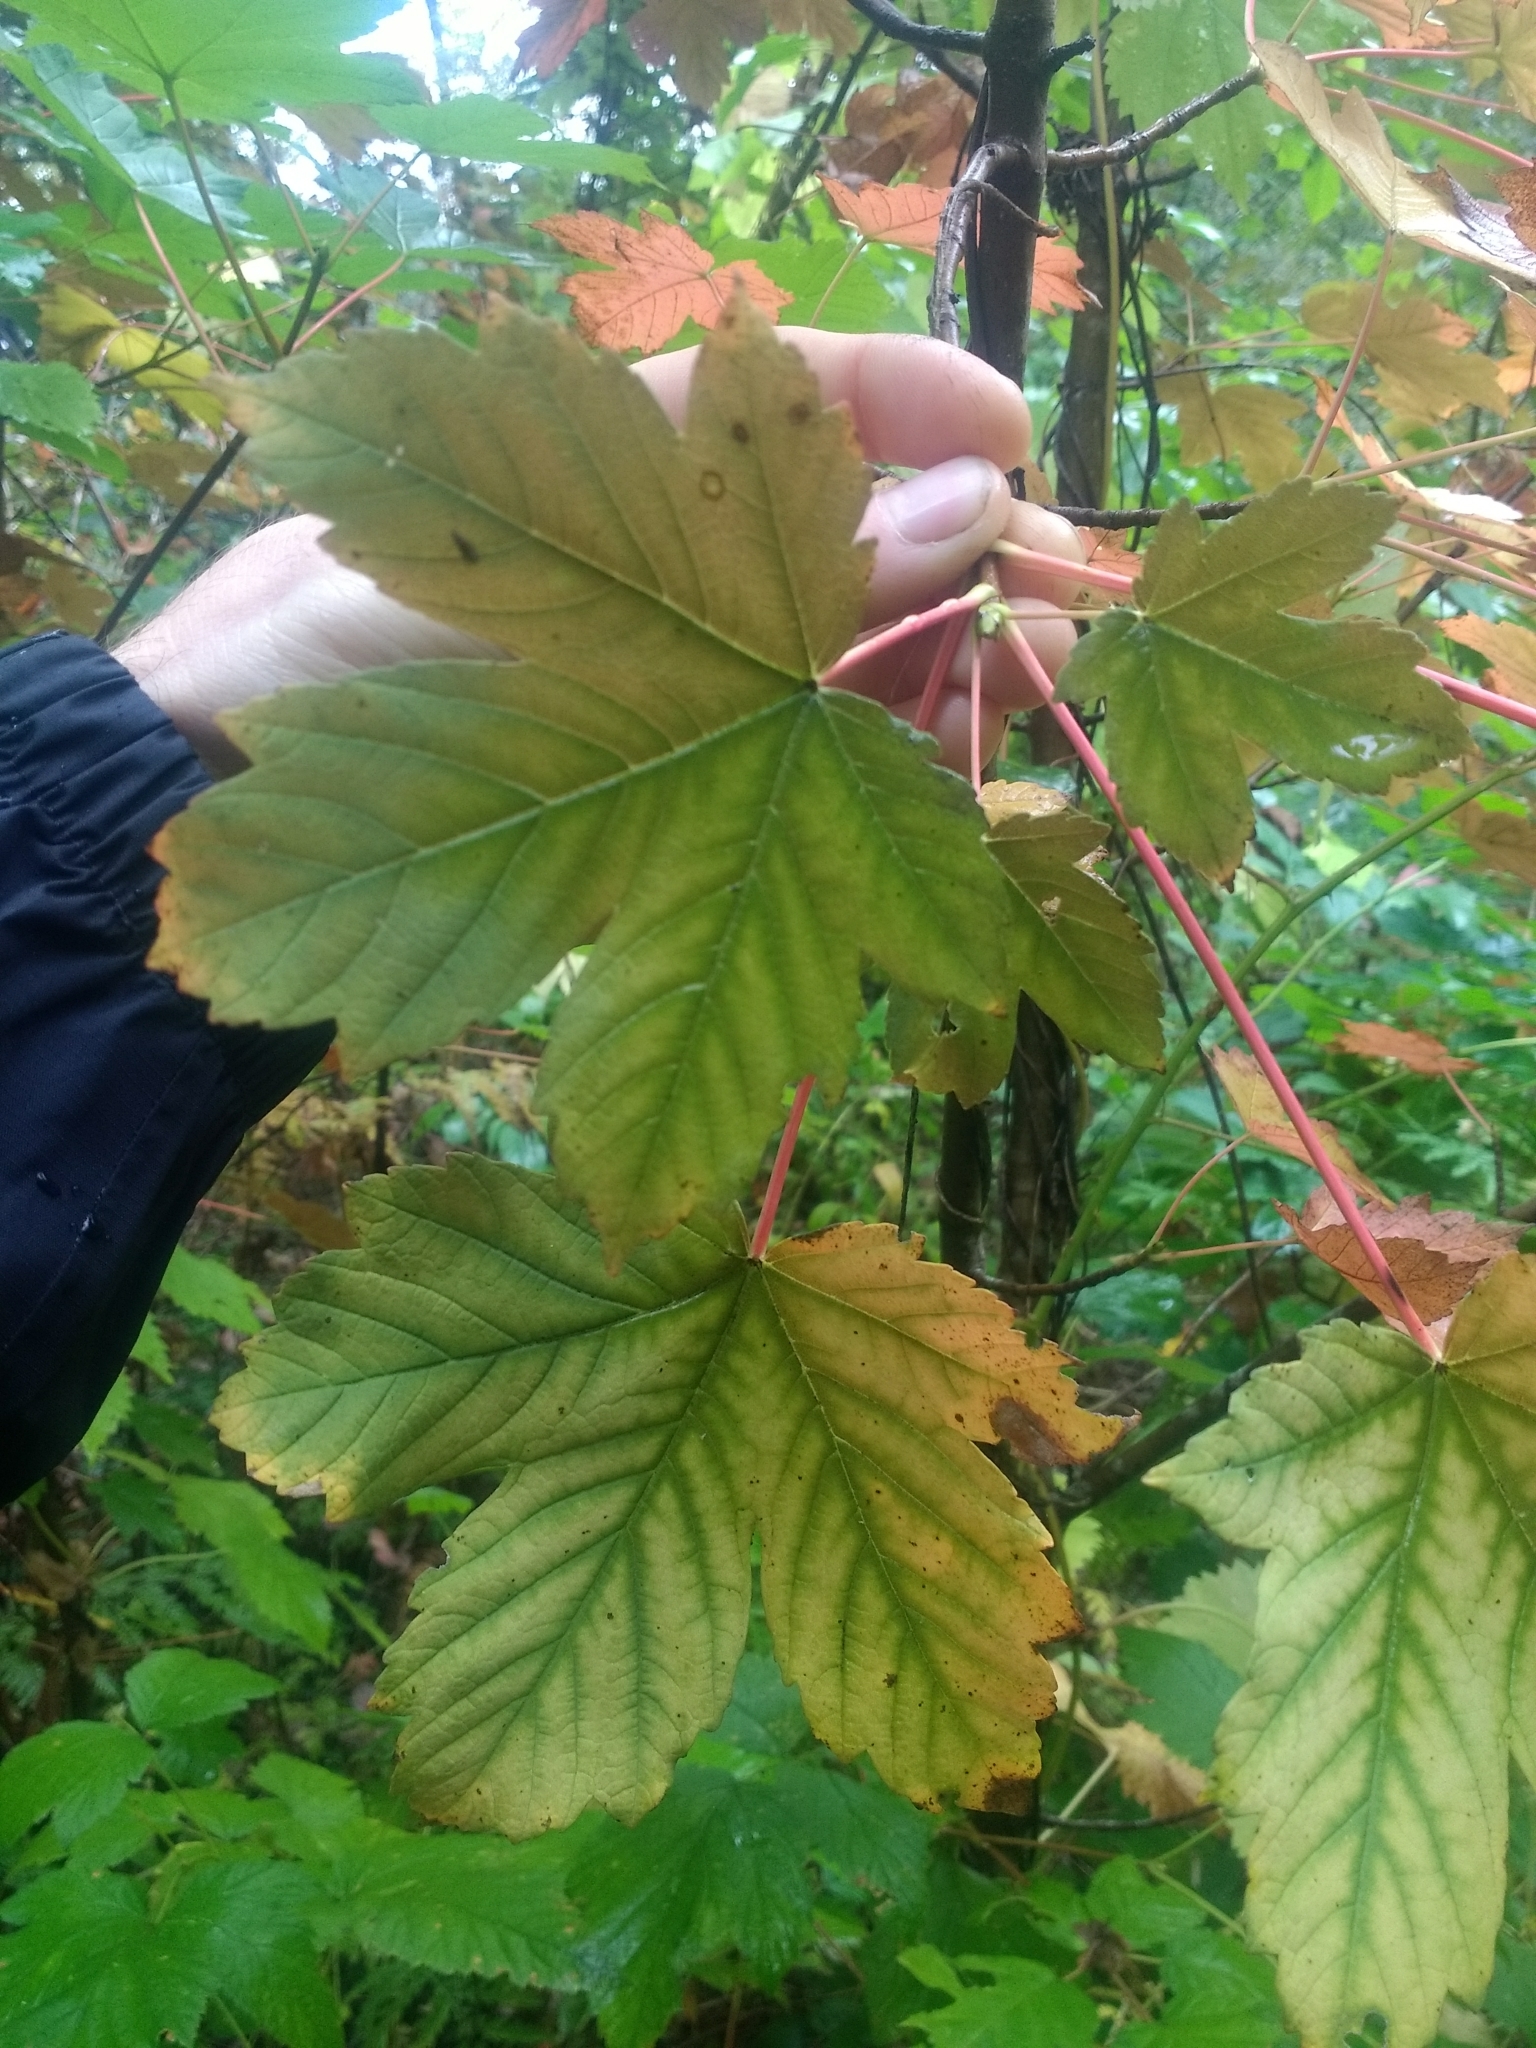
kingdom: Plantae
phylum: Tracheophyta
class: Magnoliopsida
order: Sapindales
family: Sapindaceae
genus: Acer
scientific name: Acer pseudoplatanus
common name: Sycamore
